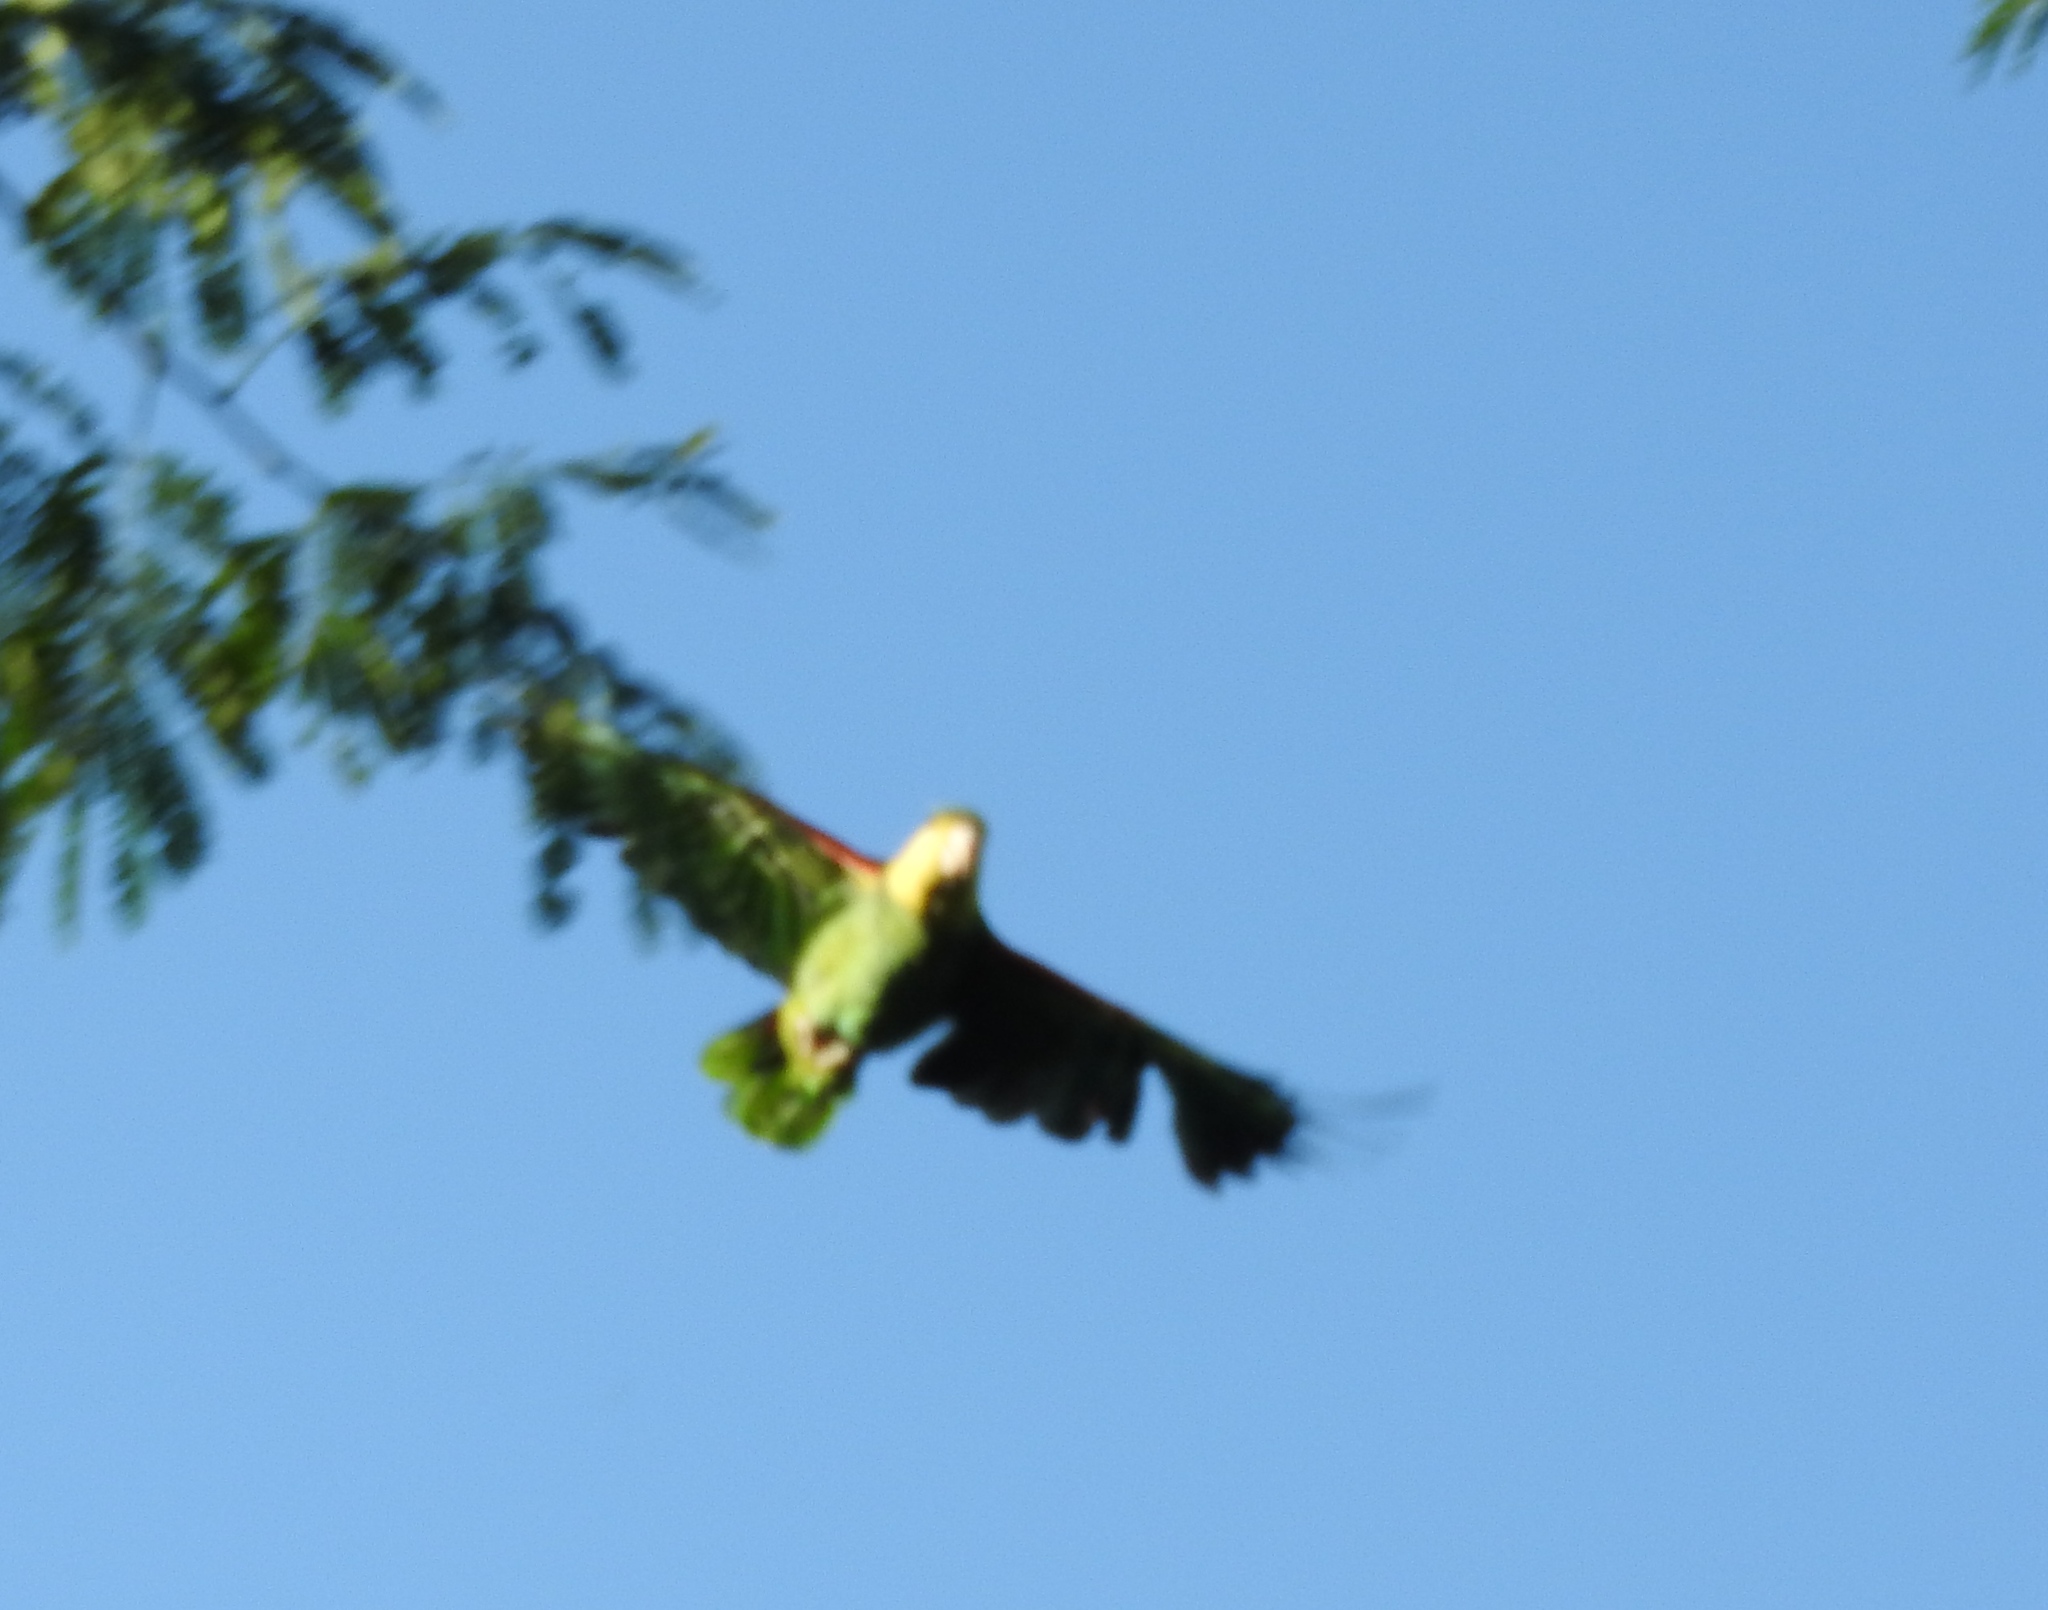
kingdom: Animalia
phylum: Chordata
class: Aves
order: Psittaciformes
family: Psittacidae
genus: Amazona
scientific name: Amazona albifrons
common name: White-fronted amazon
